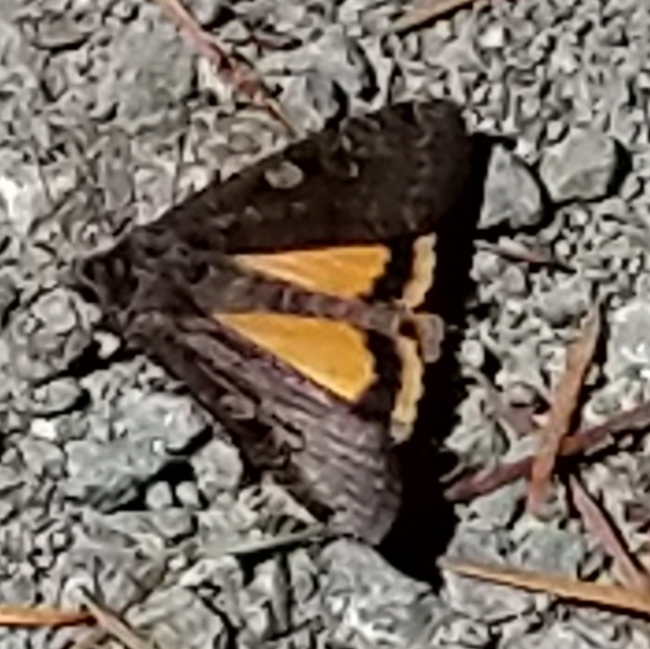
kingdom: Animalia
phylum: Arthropoda
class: Insecta
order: Lepidoptera
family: Noctuidae
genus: Noctua
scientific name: Noctua pronuba
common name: Large yellow underwing
